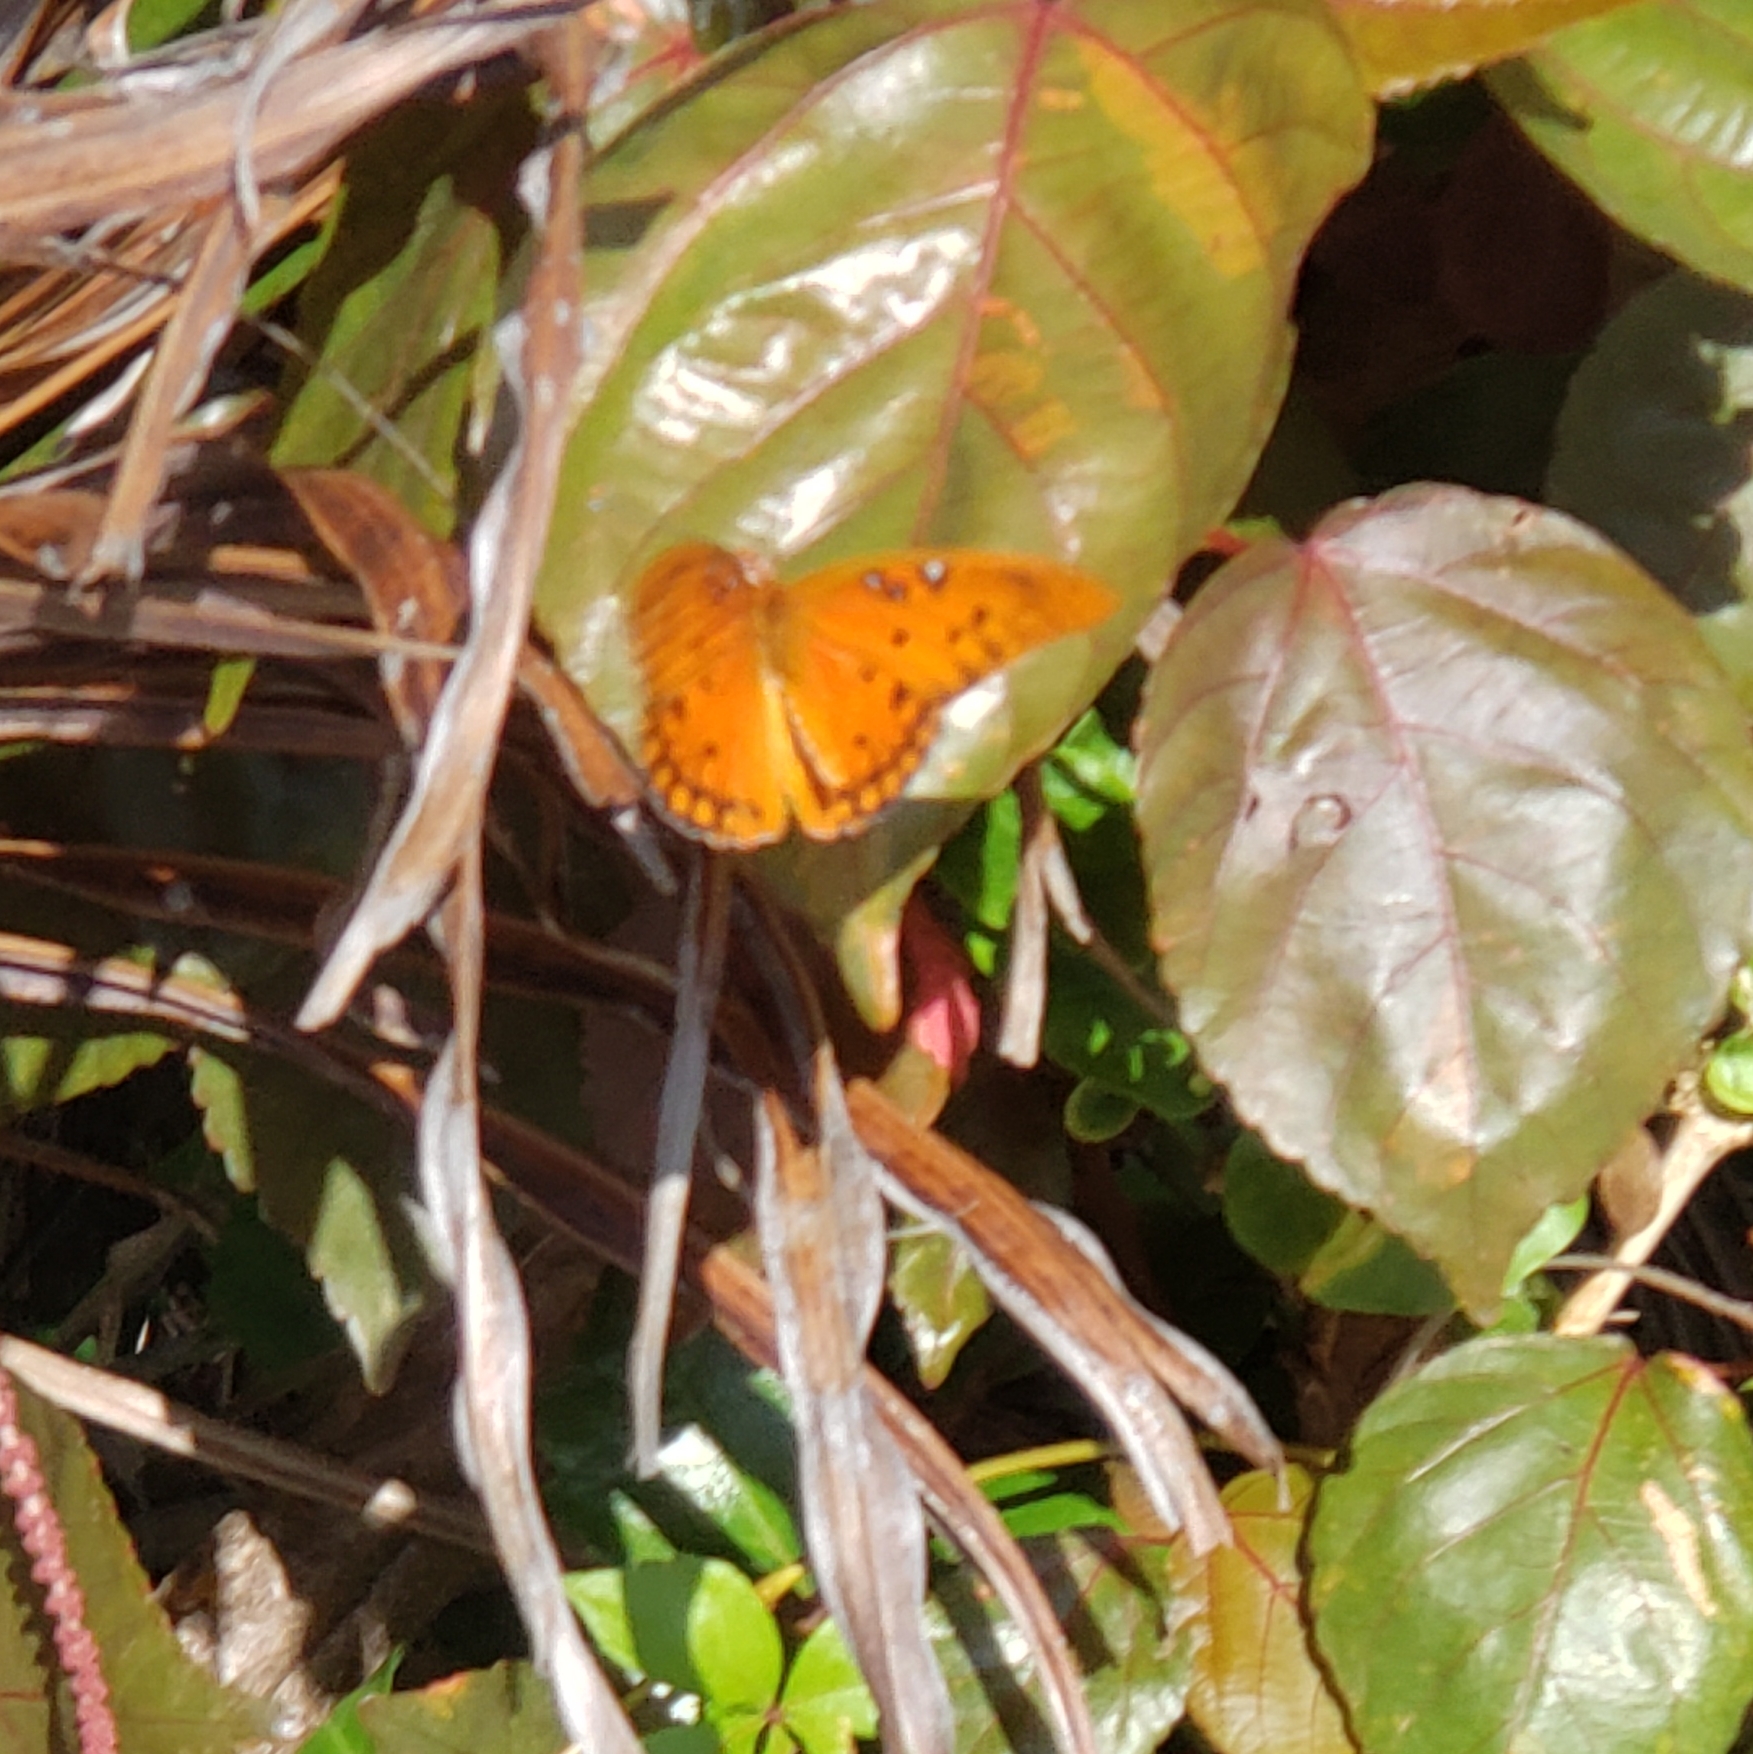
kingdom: Animalia
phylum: Arthropoda
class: Insecta
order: Lepidoptera
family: Nymphalidae
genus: Dione
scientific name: Dione vanillae
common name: Gulf fritillary
